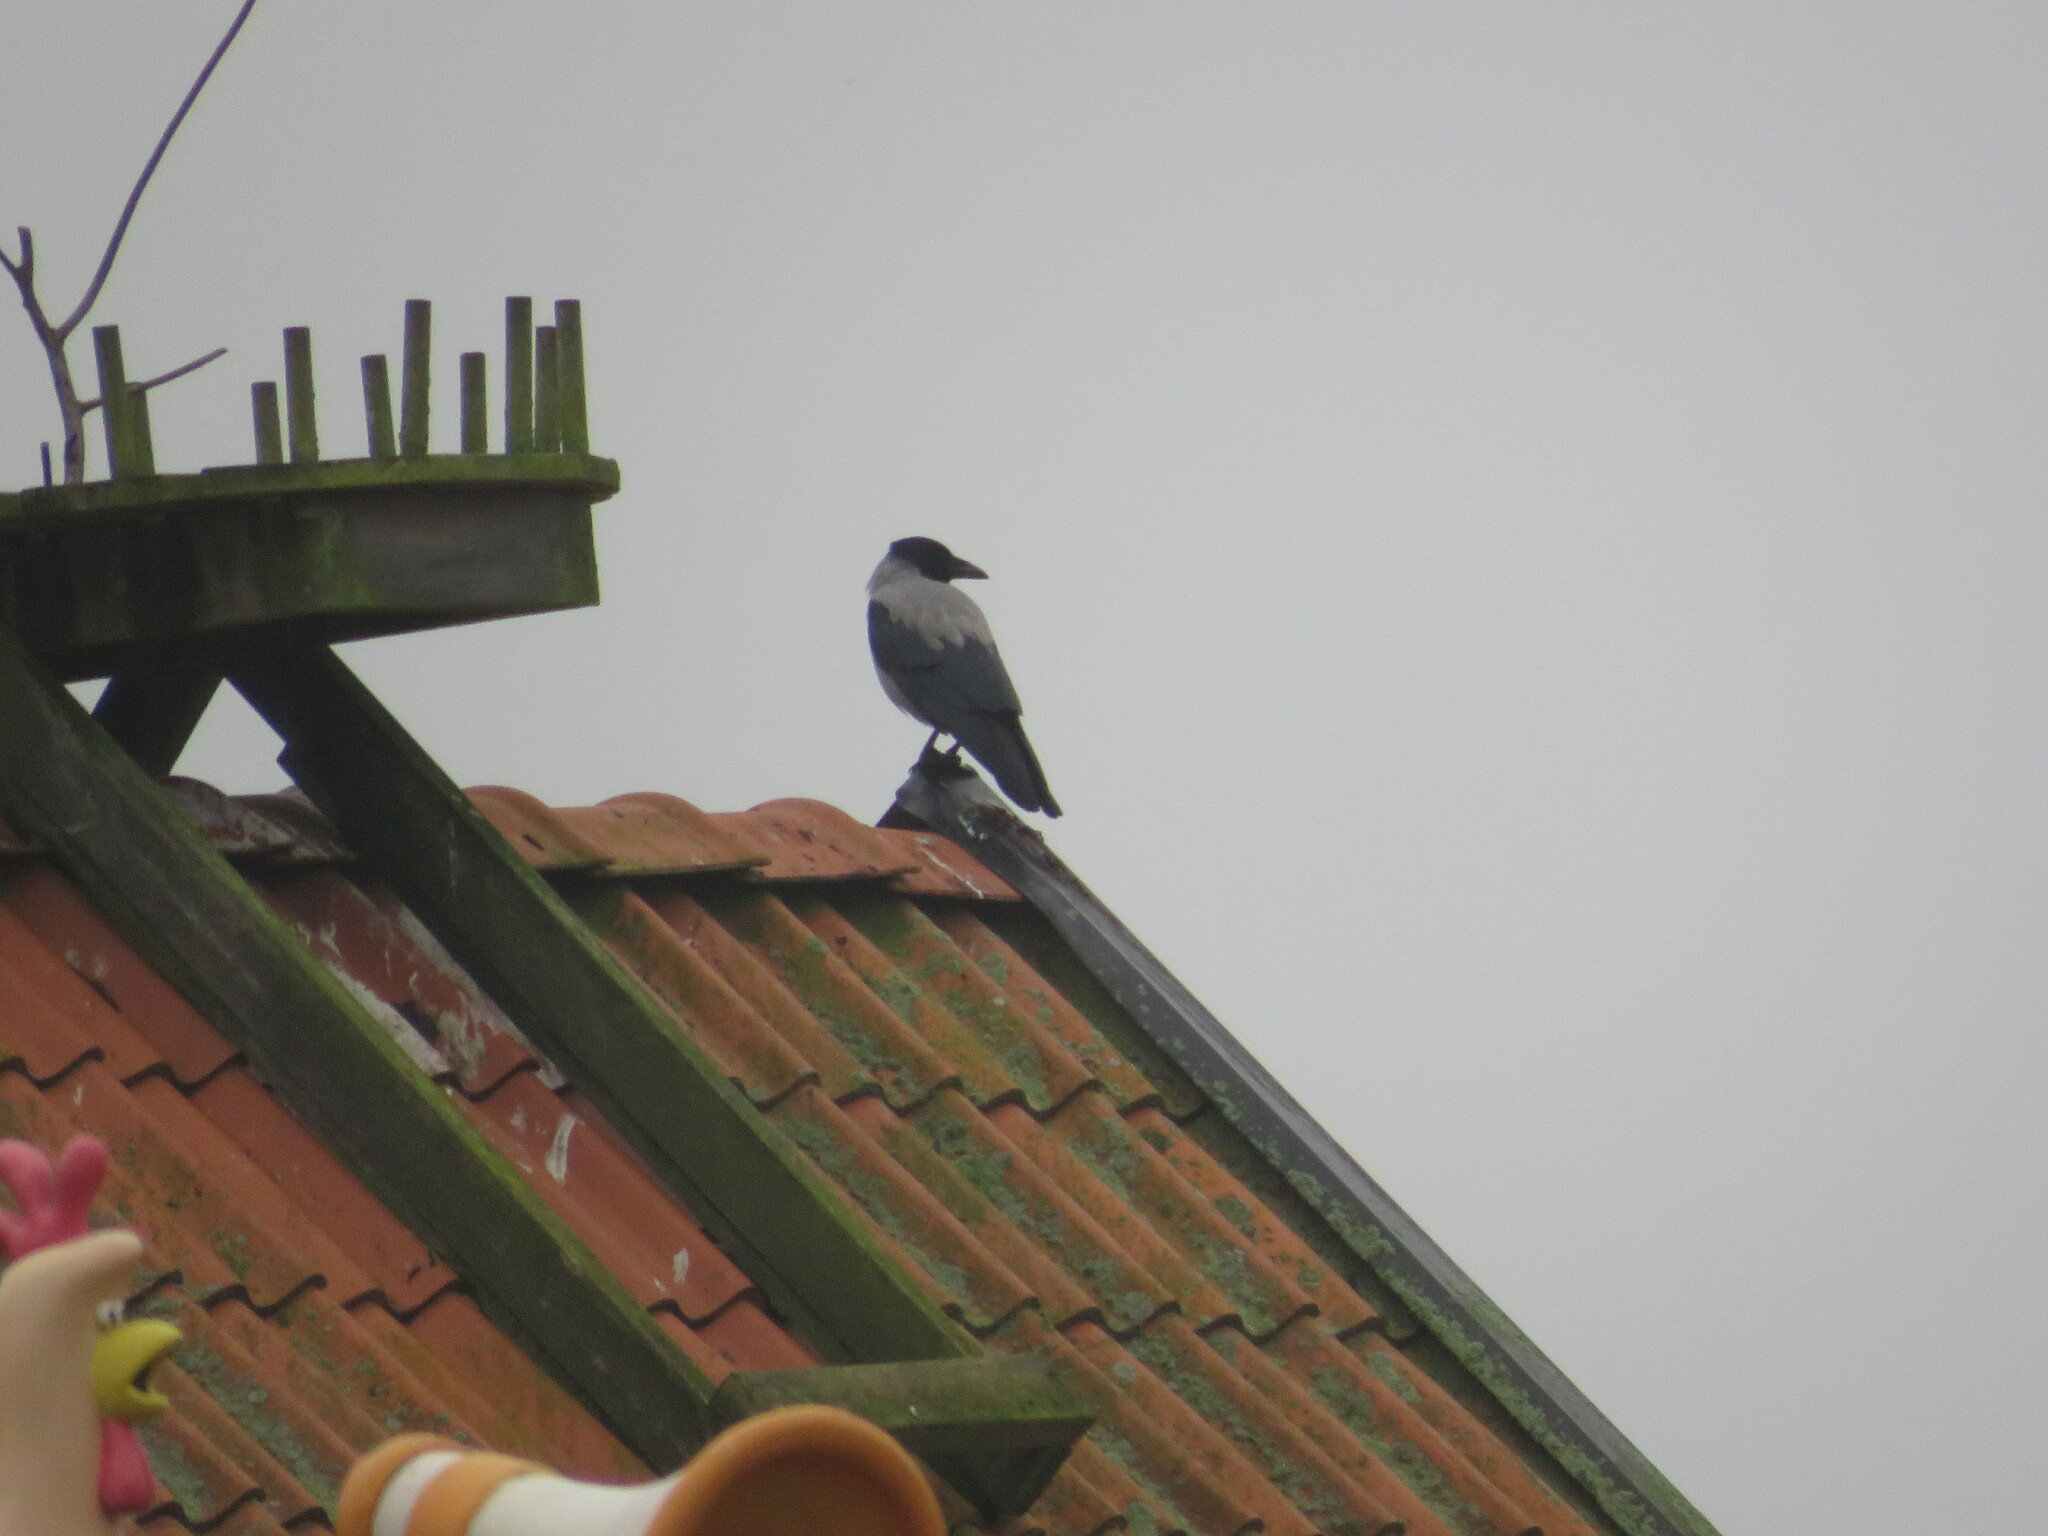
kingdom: Animalia
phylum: Chordata
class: Aves
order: Passeriformes
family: Corvidae
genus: Corvus
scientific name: Corvus cornix
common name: Hooded crow
